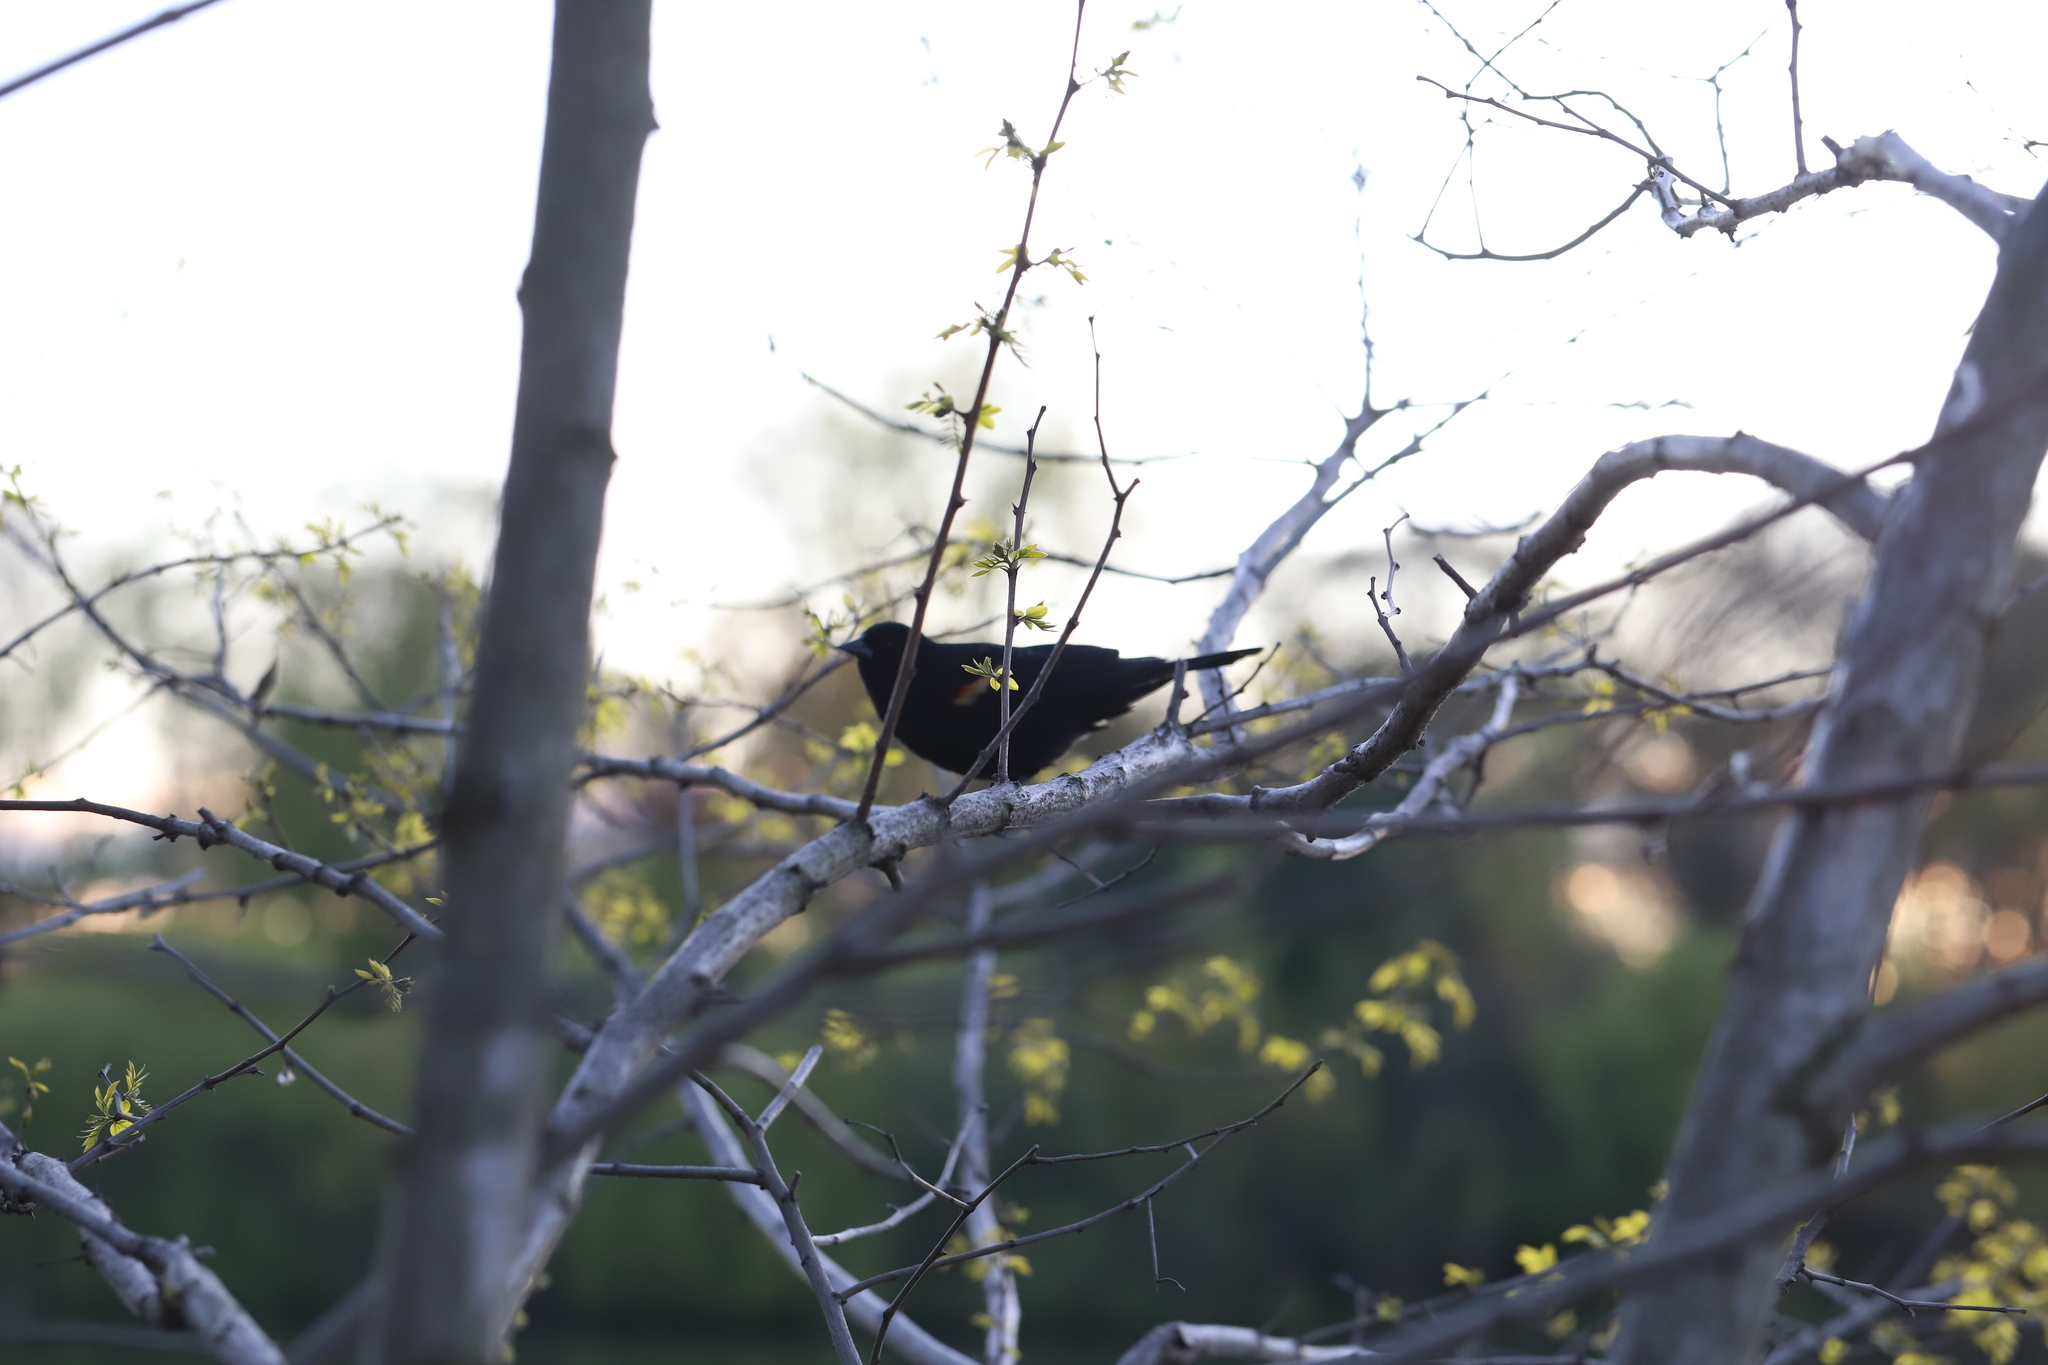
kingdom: Animalia
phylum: Chordata
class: Aves
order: Passeriformes
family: Icteridae
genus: Agelaius
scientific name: Agelaius phoeniceus
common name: Red-winged blackbird
